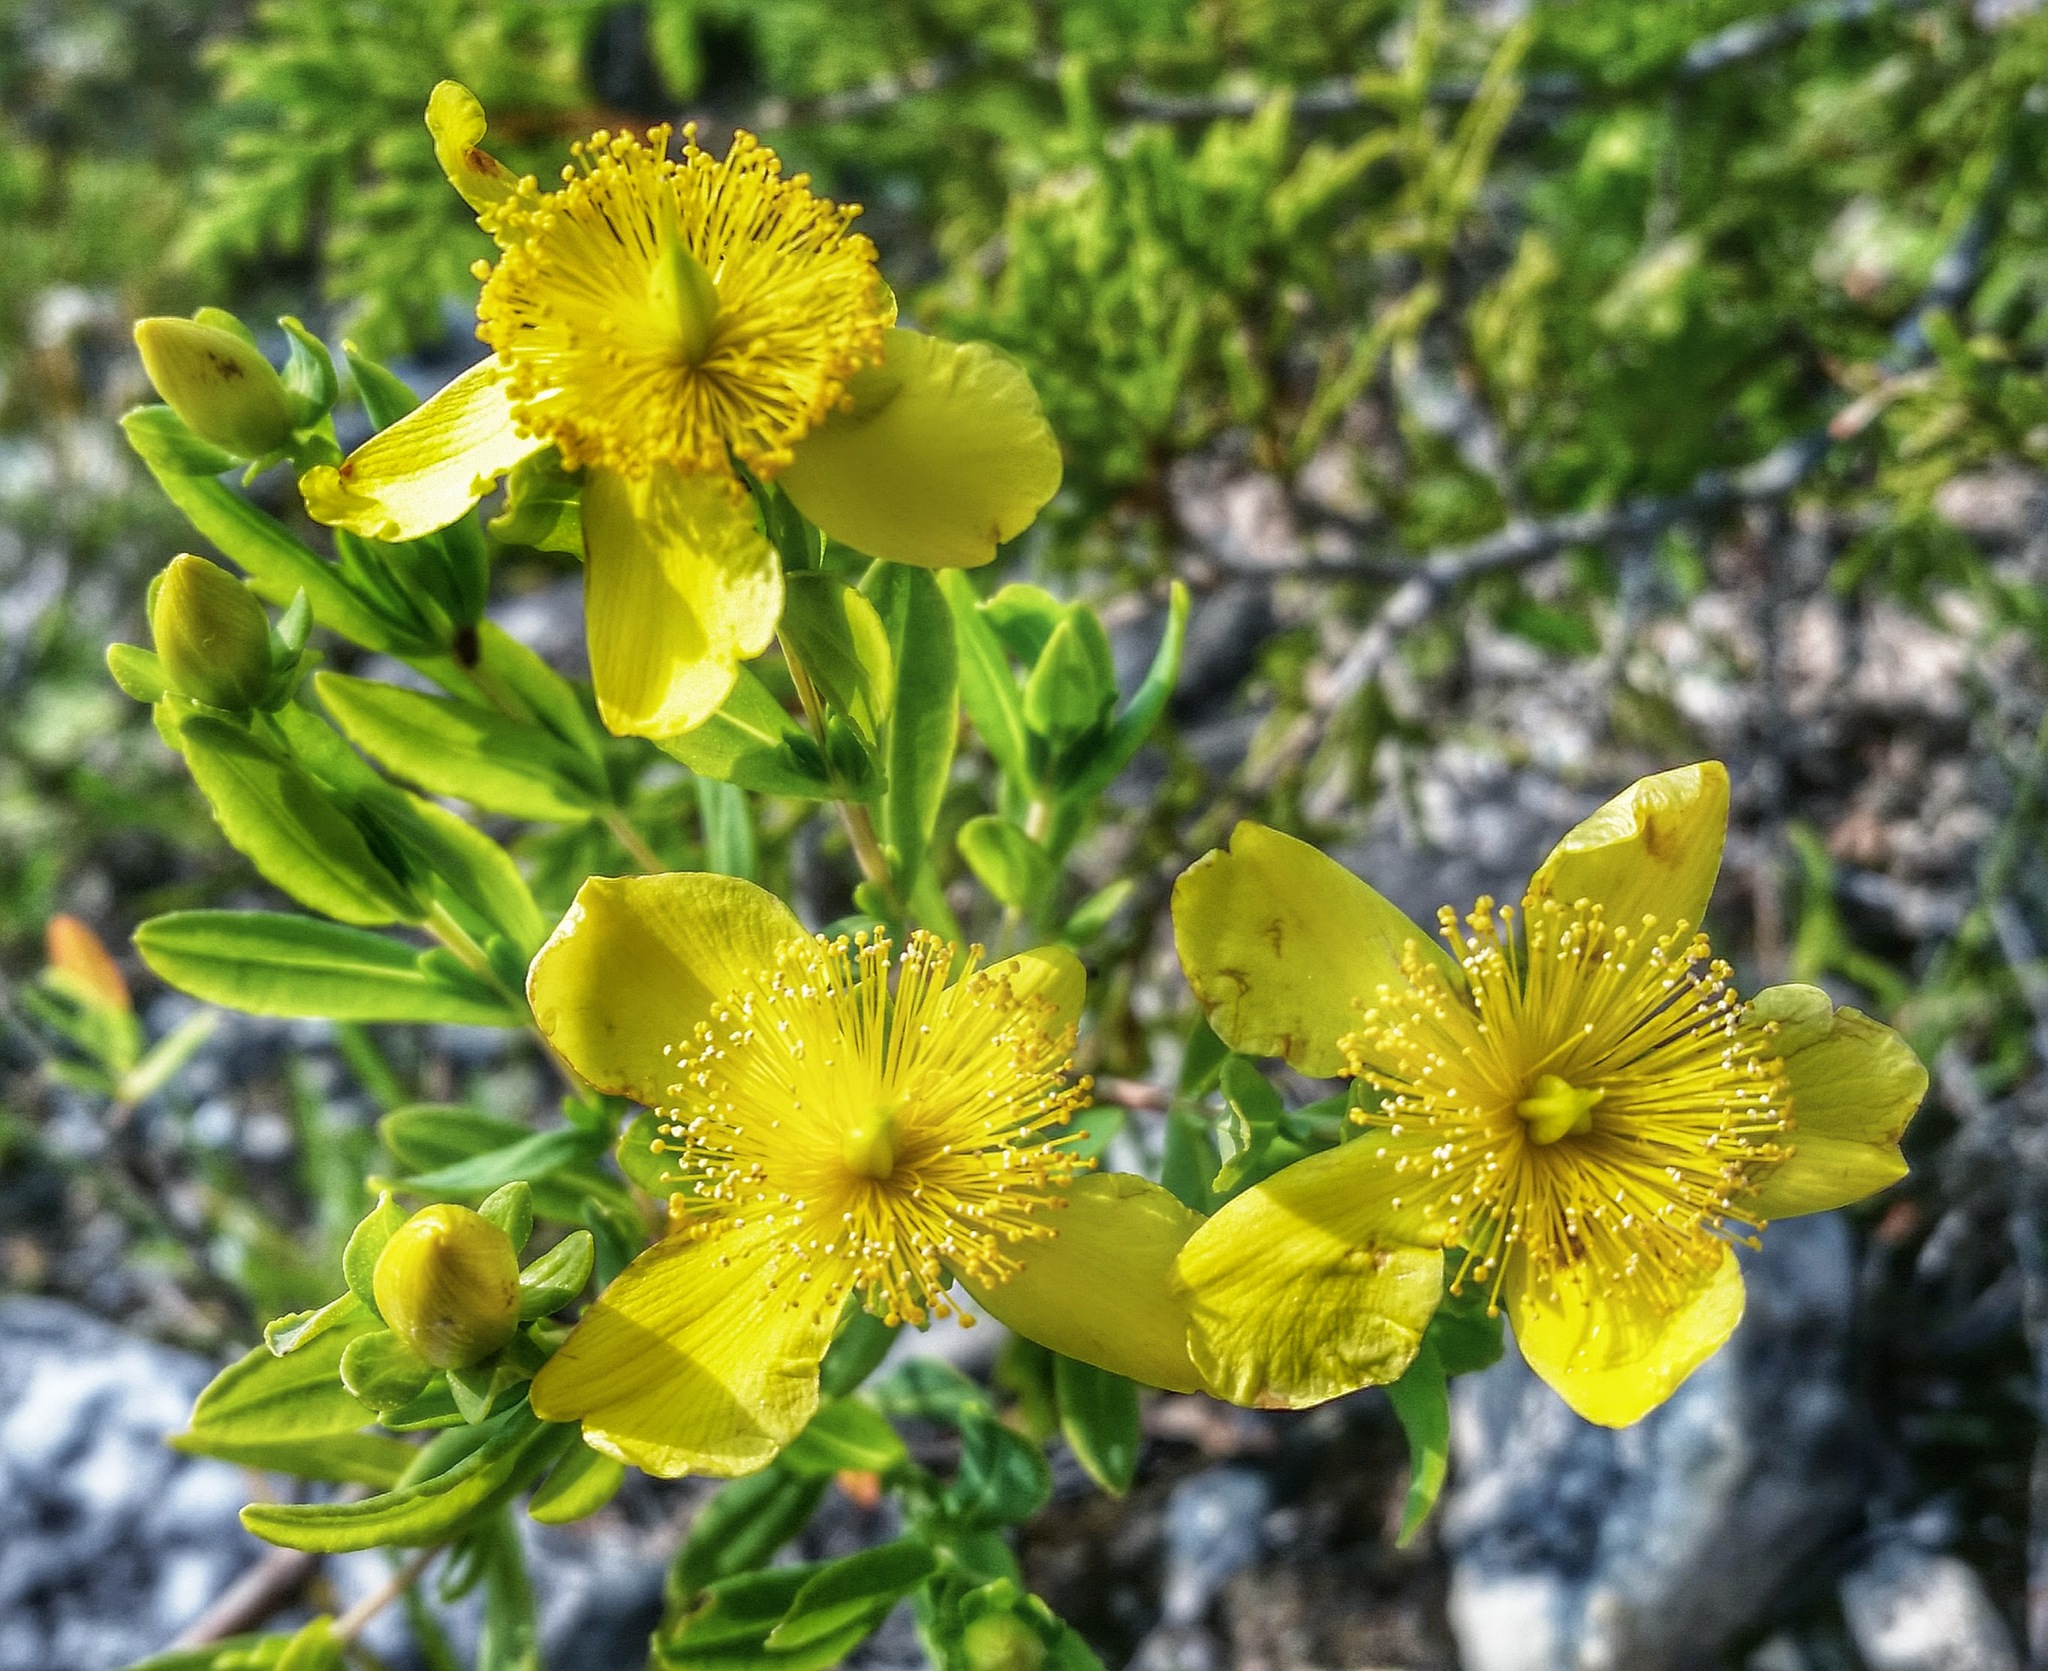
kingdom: Plantae
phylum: Tracheophyta
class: Magnoliopsida
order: Malpighiales
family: Hypericaceae
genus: Hypericum
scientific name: Hypericum kalmianum
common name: Kalm's st. john's-wort
